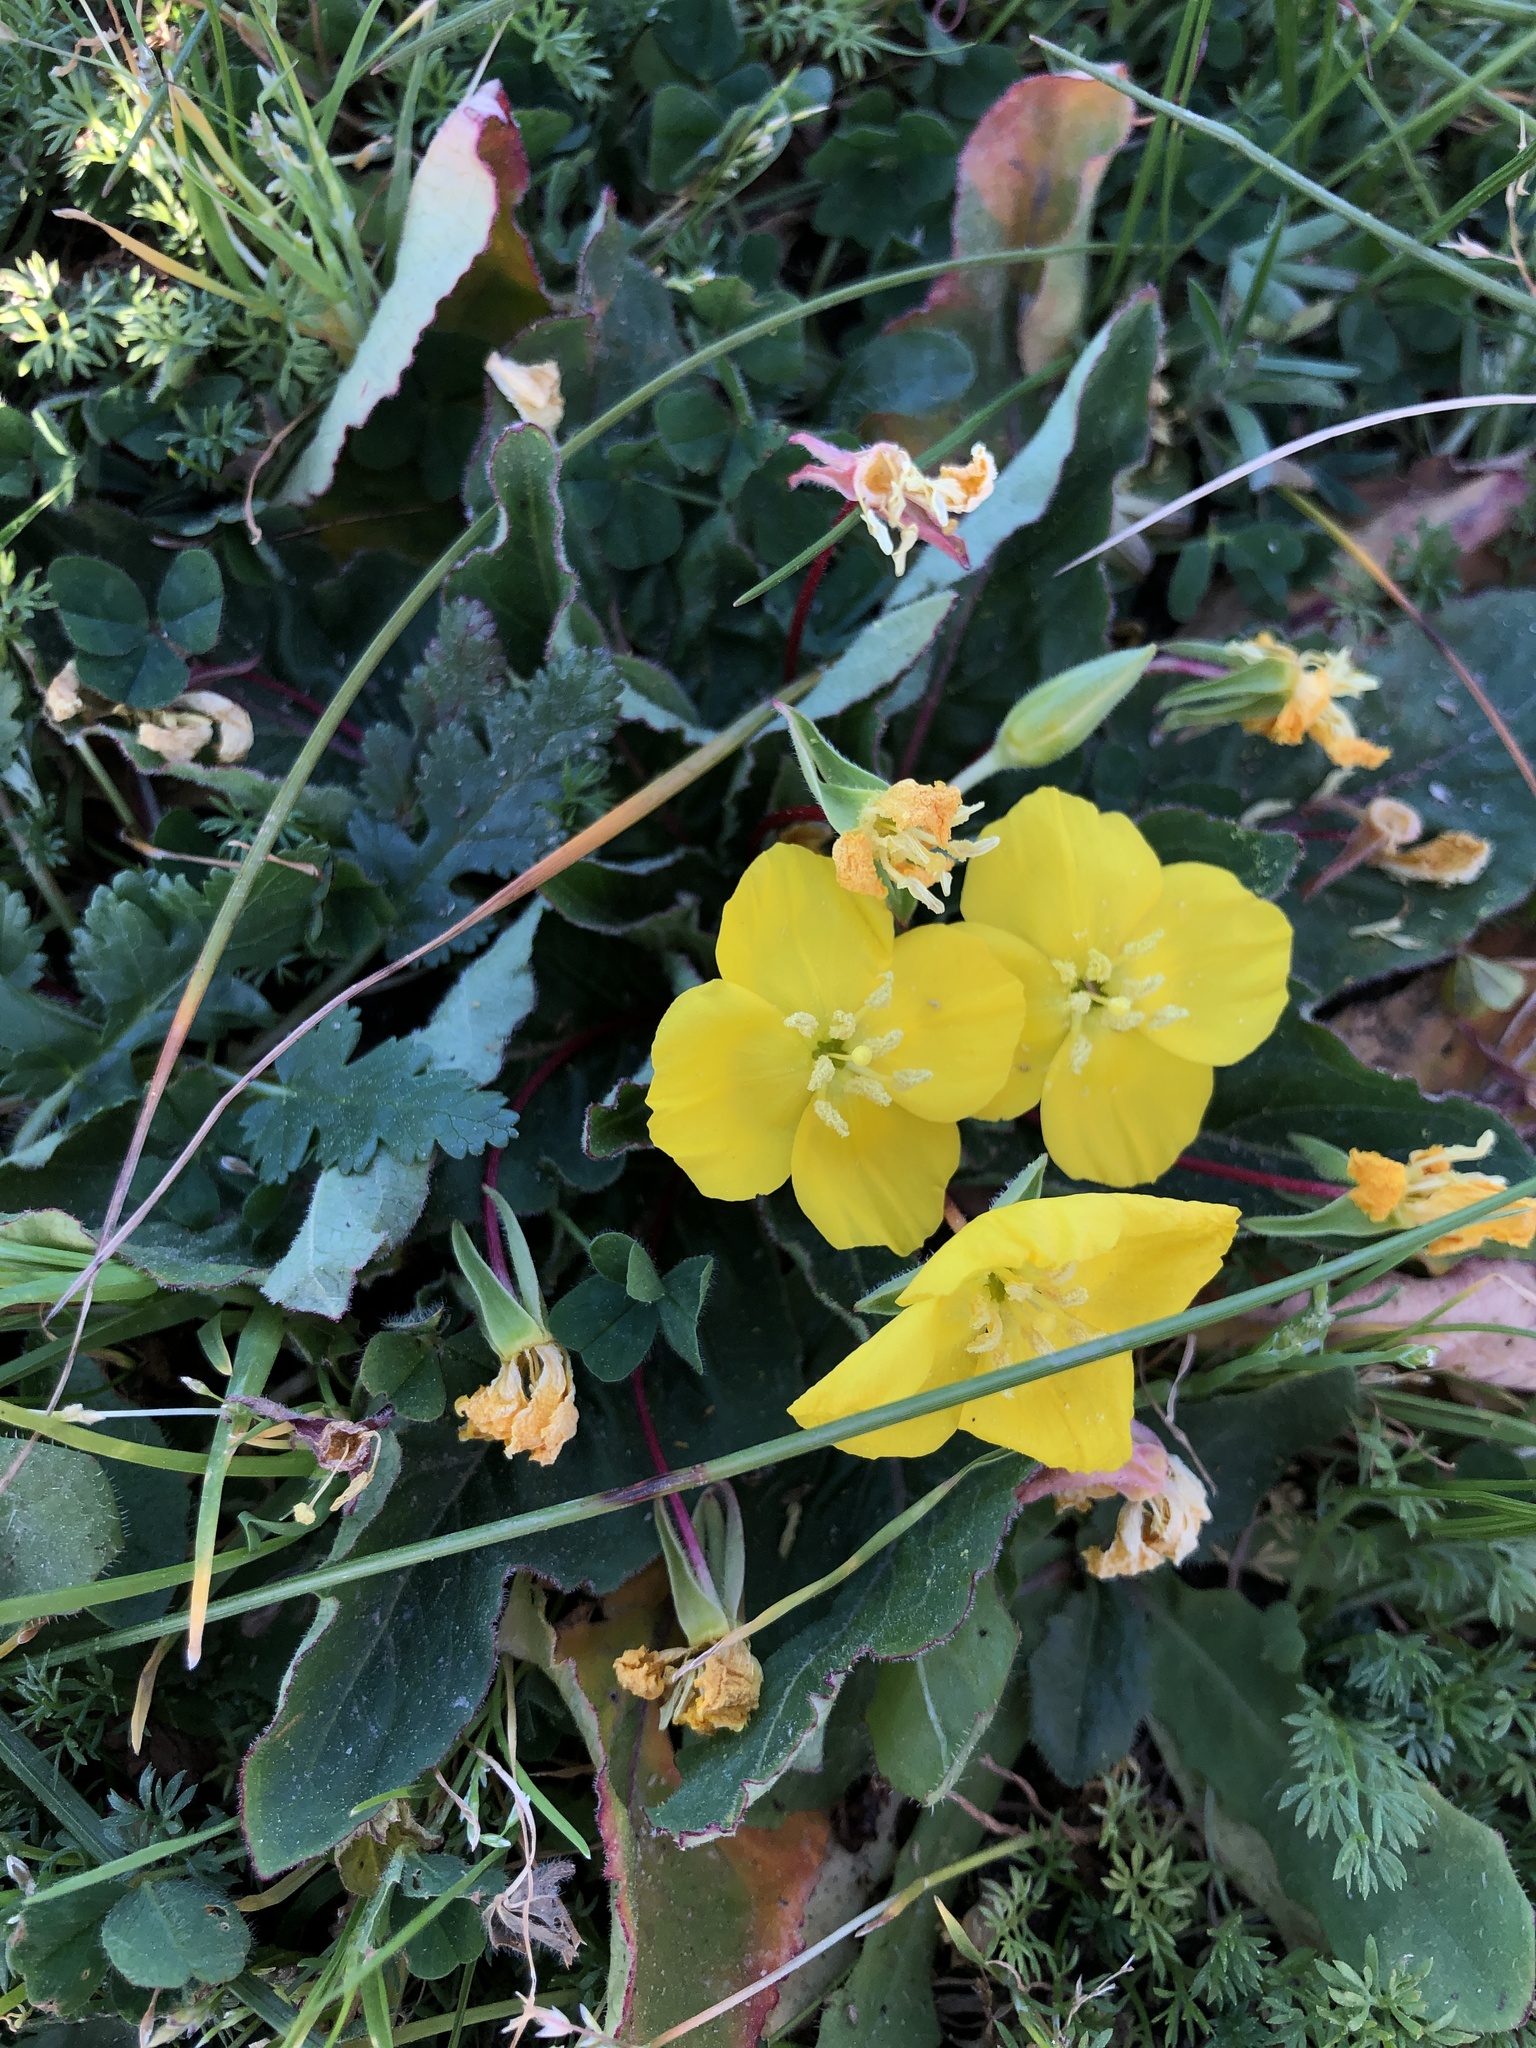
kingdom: Plantae
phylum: Tracheophyta
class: Magnoliopsida
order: Myrtales
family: Onagraceae
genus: Taraxia
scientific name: Taraxia ovata
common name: Goldeneggs
